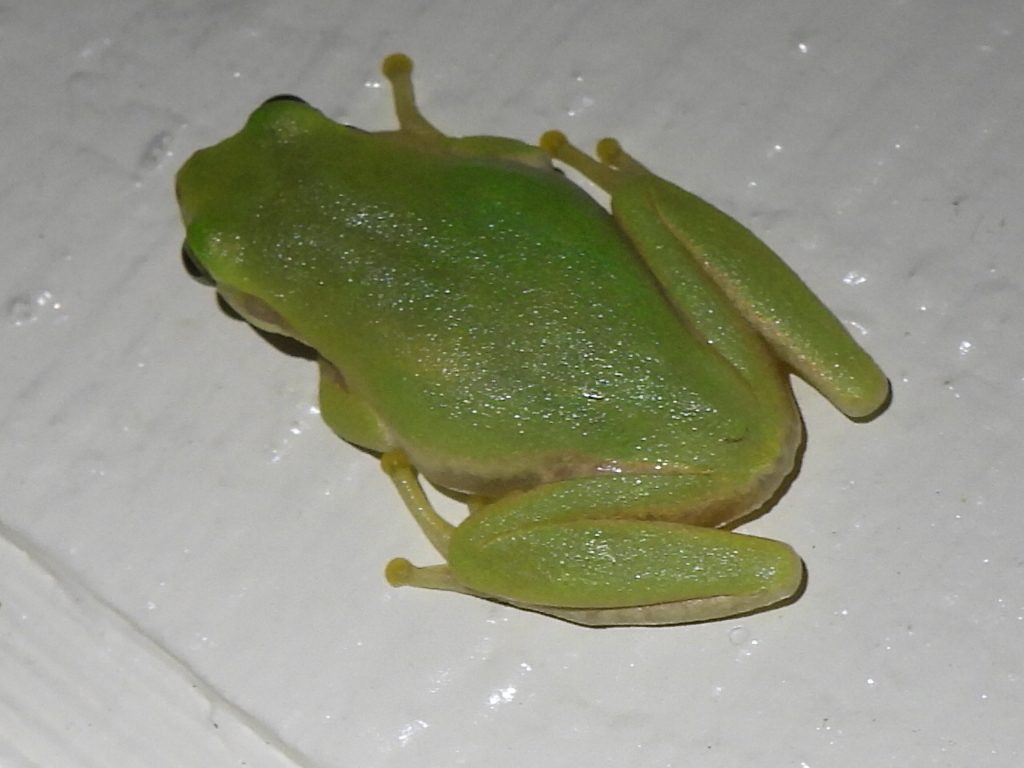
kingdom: Animalia
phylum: Chordata
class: Amphibia
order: Anura
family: Hylidae
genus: Dryophytes
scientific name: Dryophytes squirellus
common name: Squirrel treefrog
